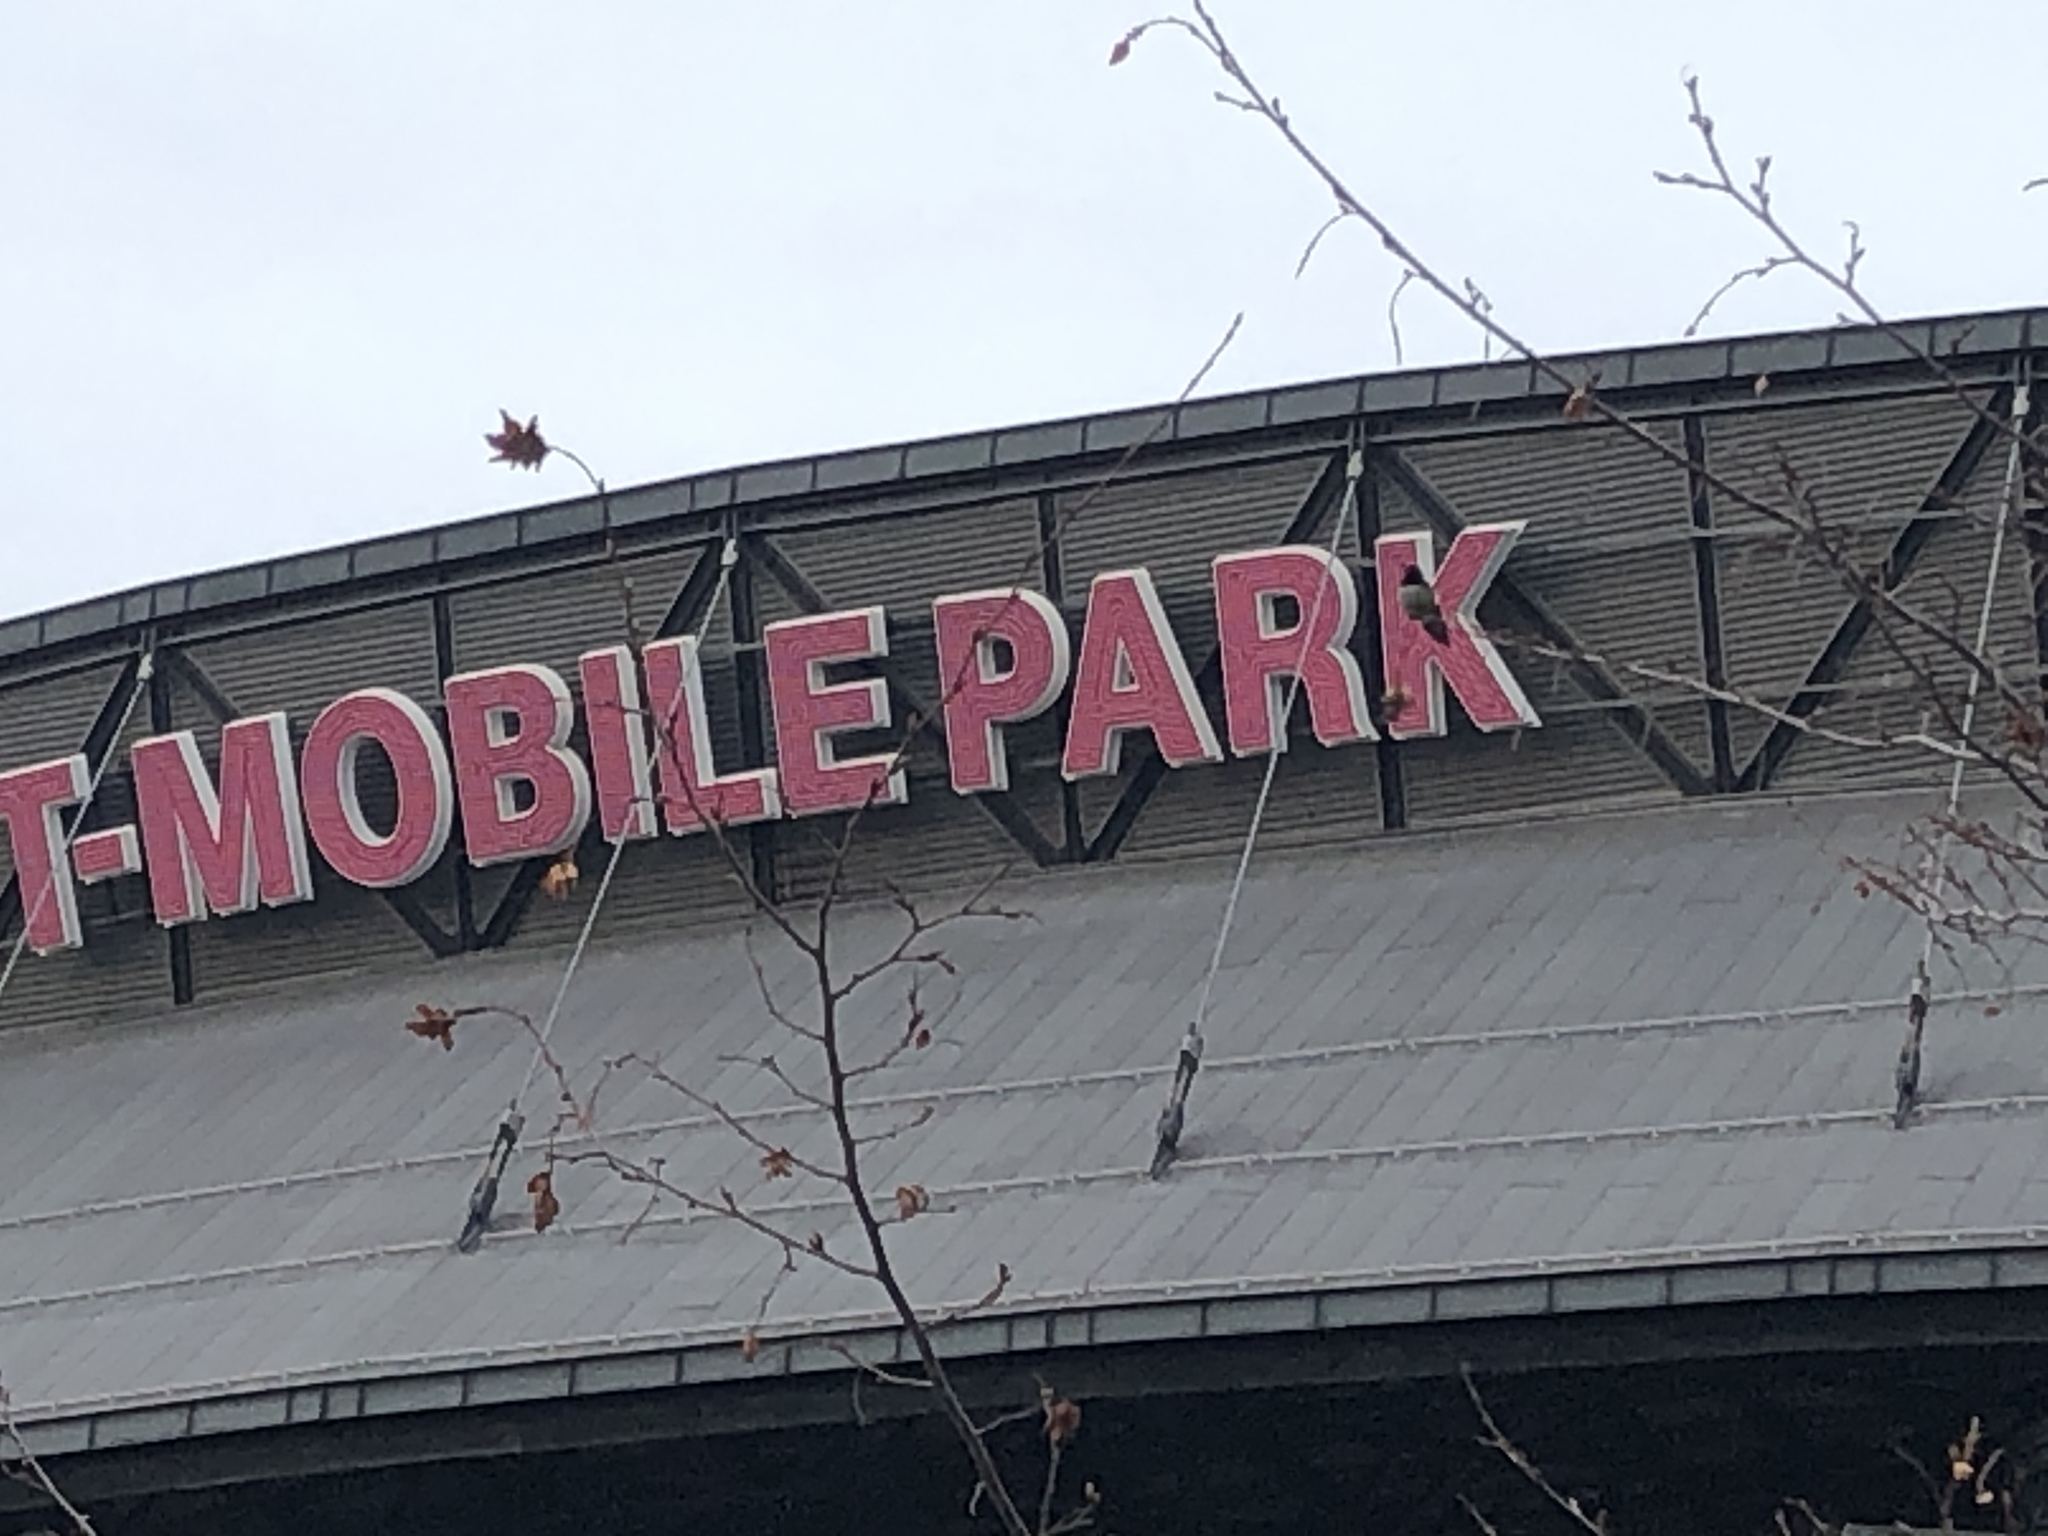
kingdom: Animalia
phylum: Chordata
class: Aves
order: Apodiformes
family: Trochilidae
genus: Calypte
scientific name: Calypte anna
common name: Anna's hummingbird
